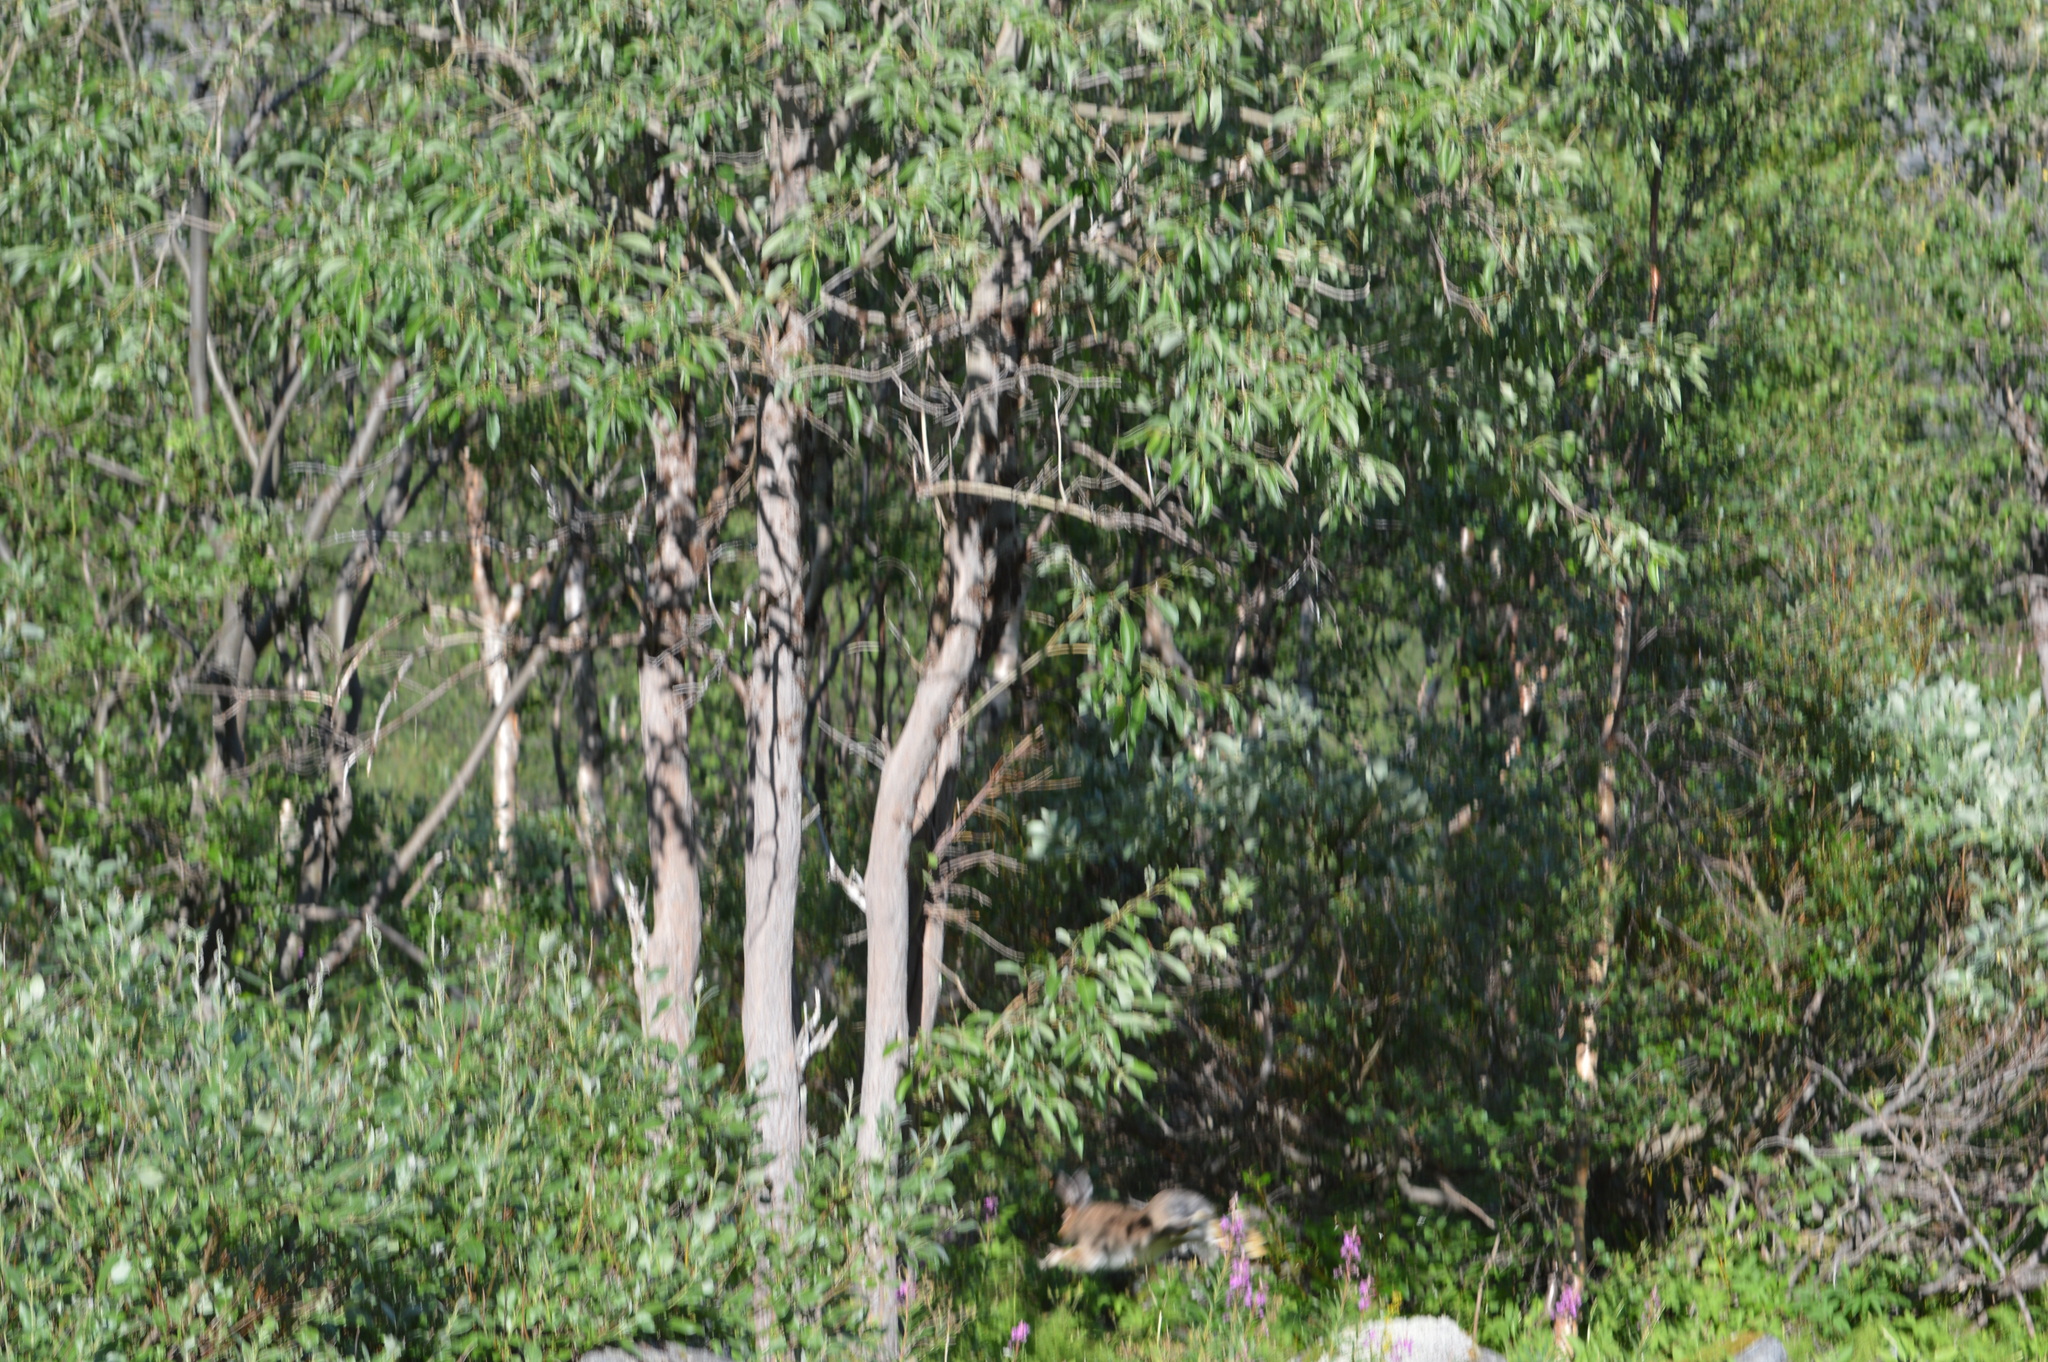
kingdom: Animalia
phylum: Chordata
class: Mammalia
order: Lagomorpha
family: Leporidae
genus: Lepus
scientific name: Lepus timidus
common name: Mountain hare
